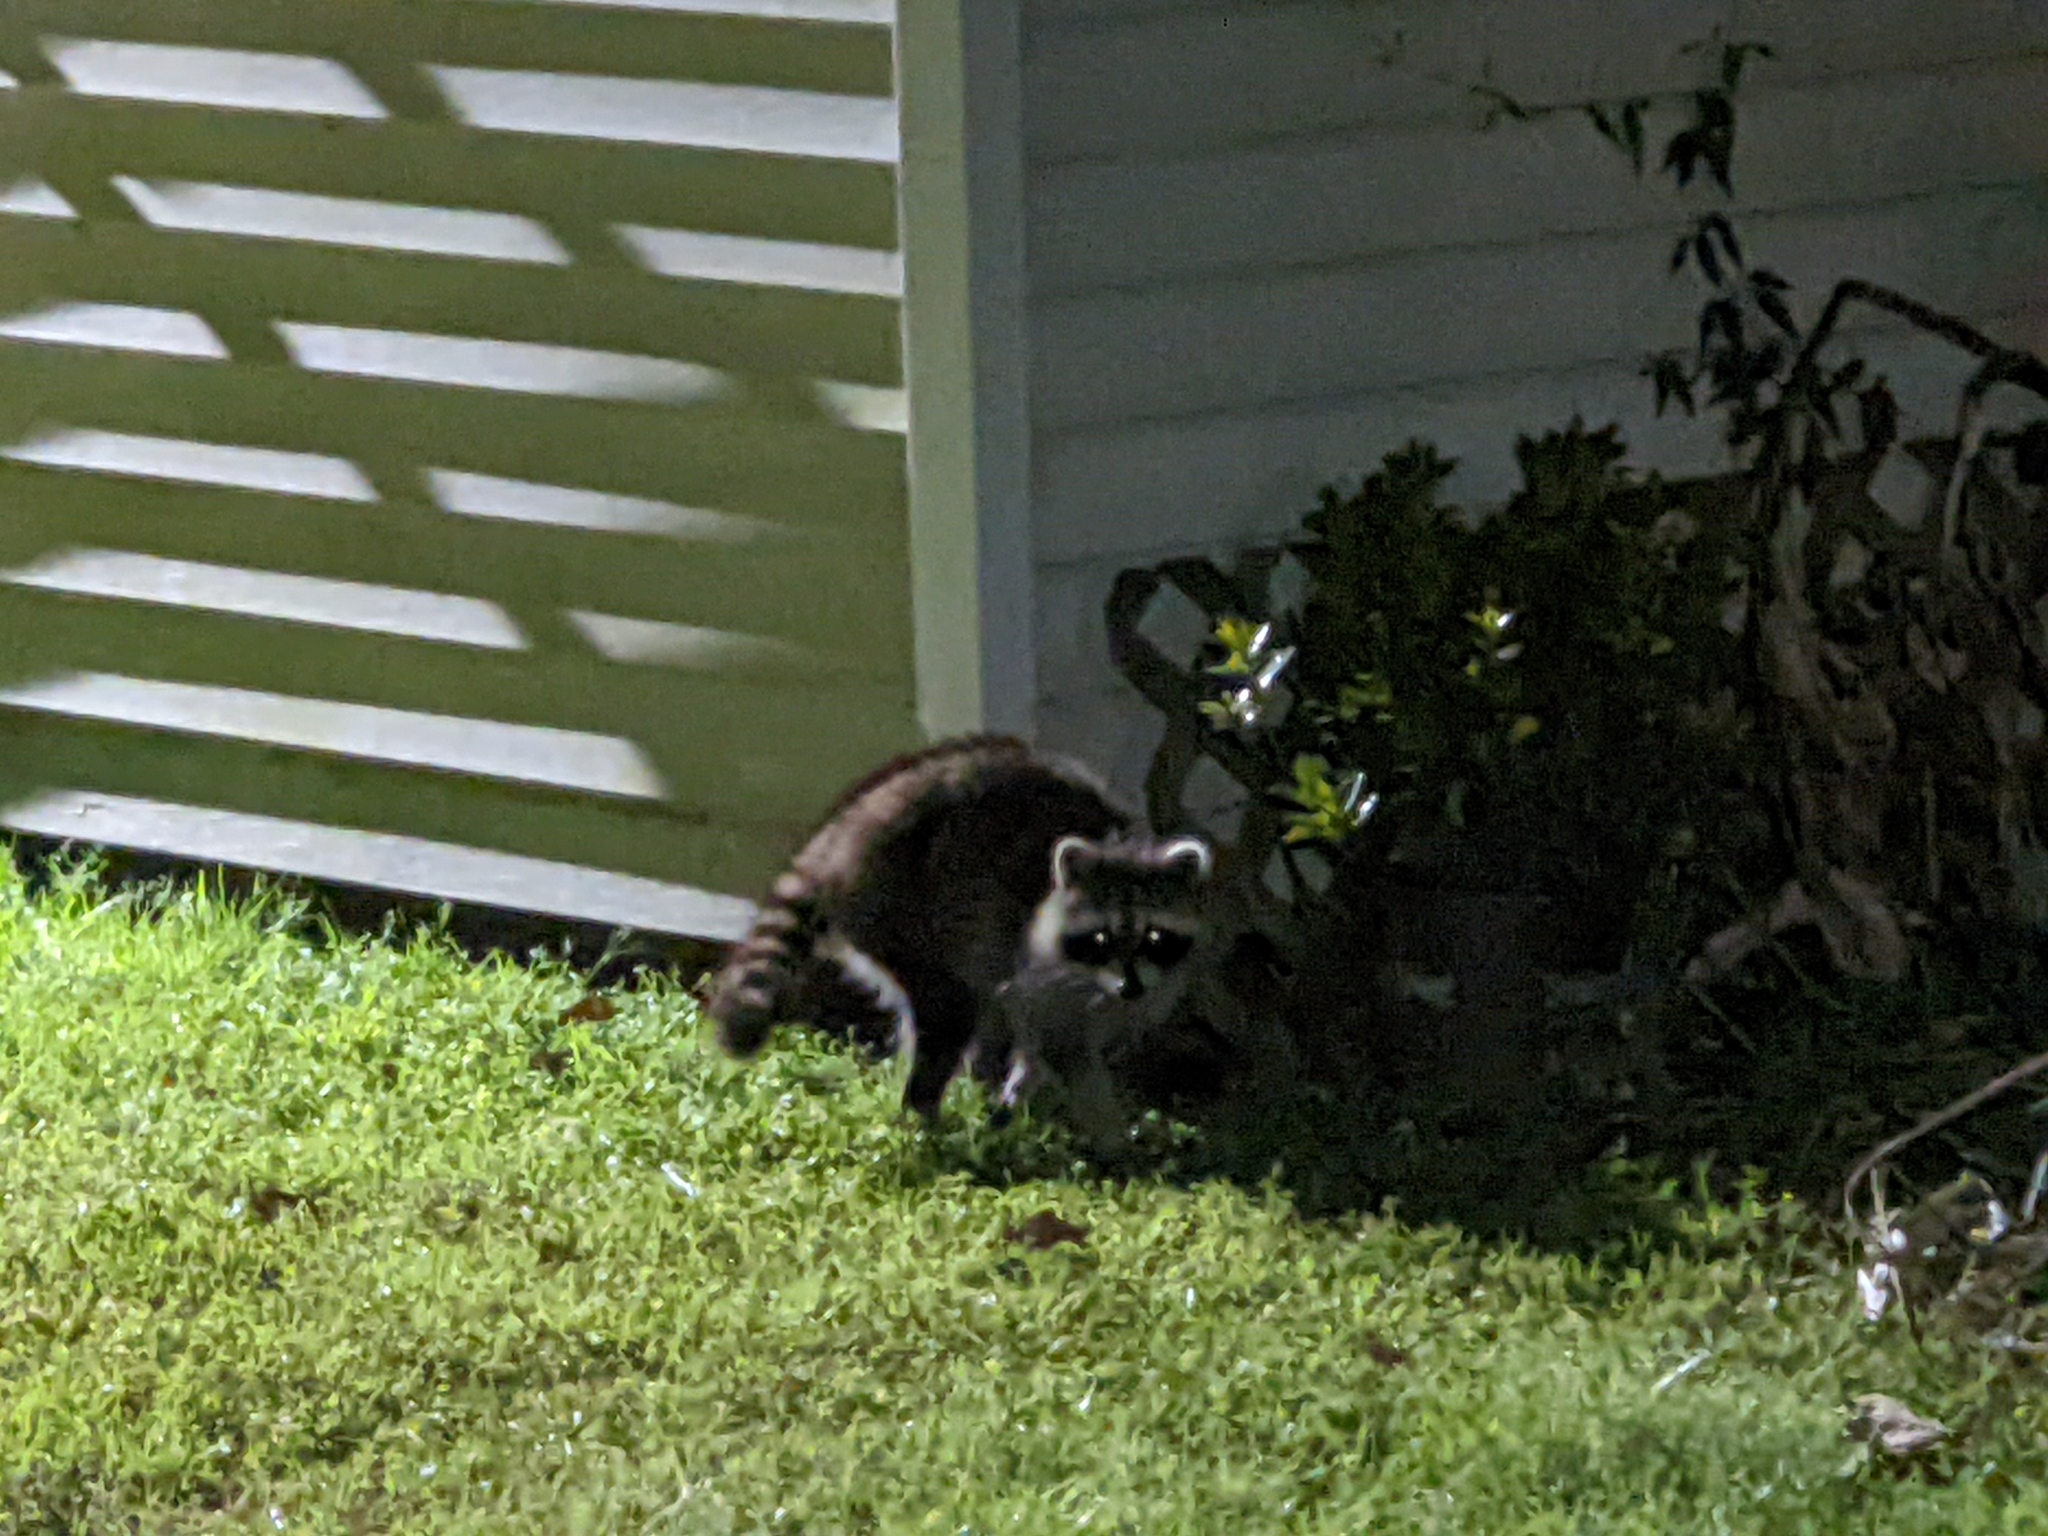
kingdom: Animalia
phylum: Chordata
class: Mammalia
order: Carnivora
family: Procyonidae
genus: Procyon
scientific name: Procyon lotor
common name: Raccoon
